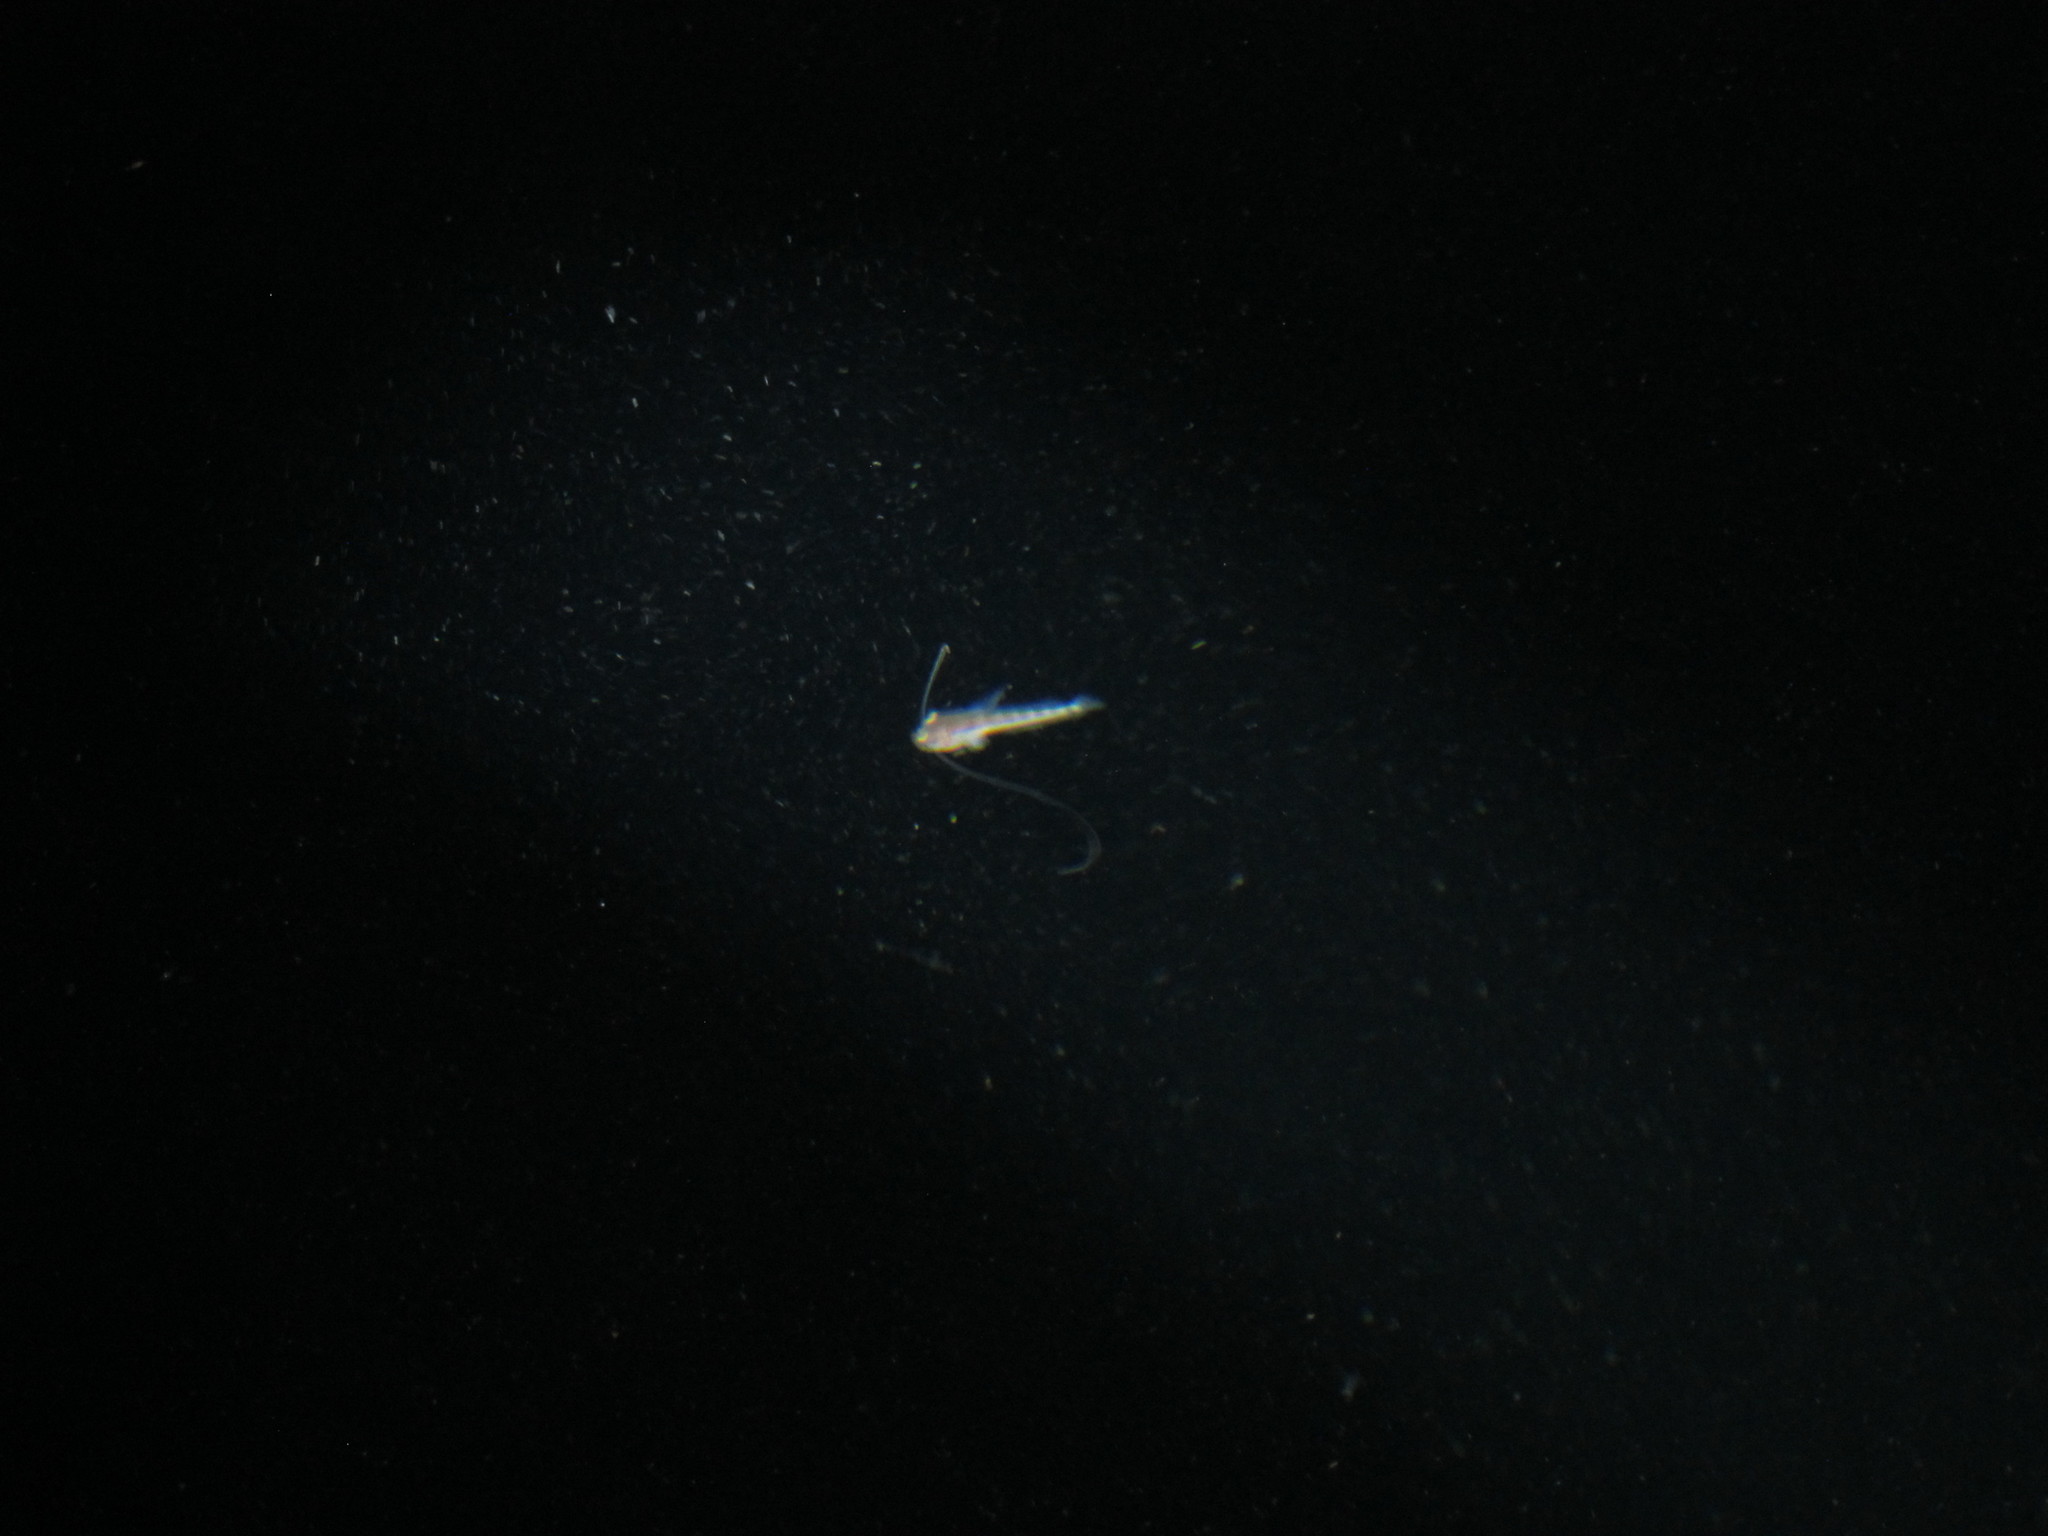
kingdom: Animalia
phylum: Chordata
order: Batrachoidiformes
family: Batrachoididae
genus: Porichthys
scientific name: Porichthys notatus
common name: Plainfin midshipman
